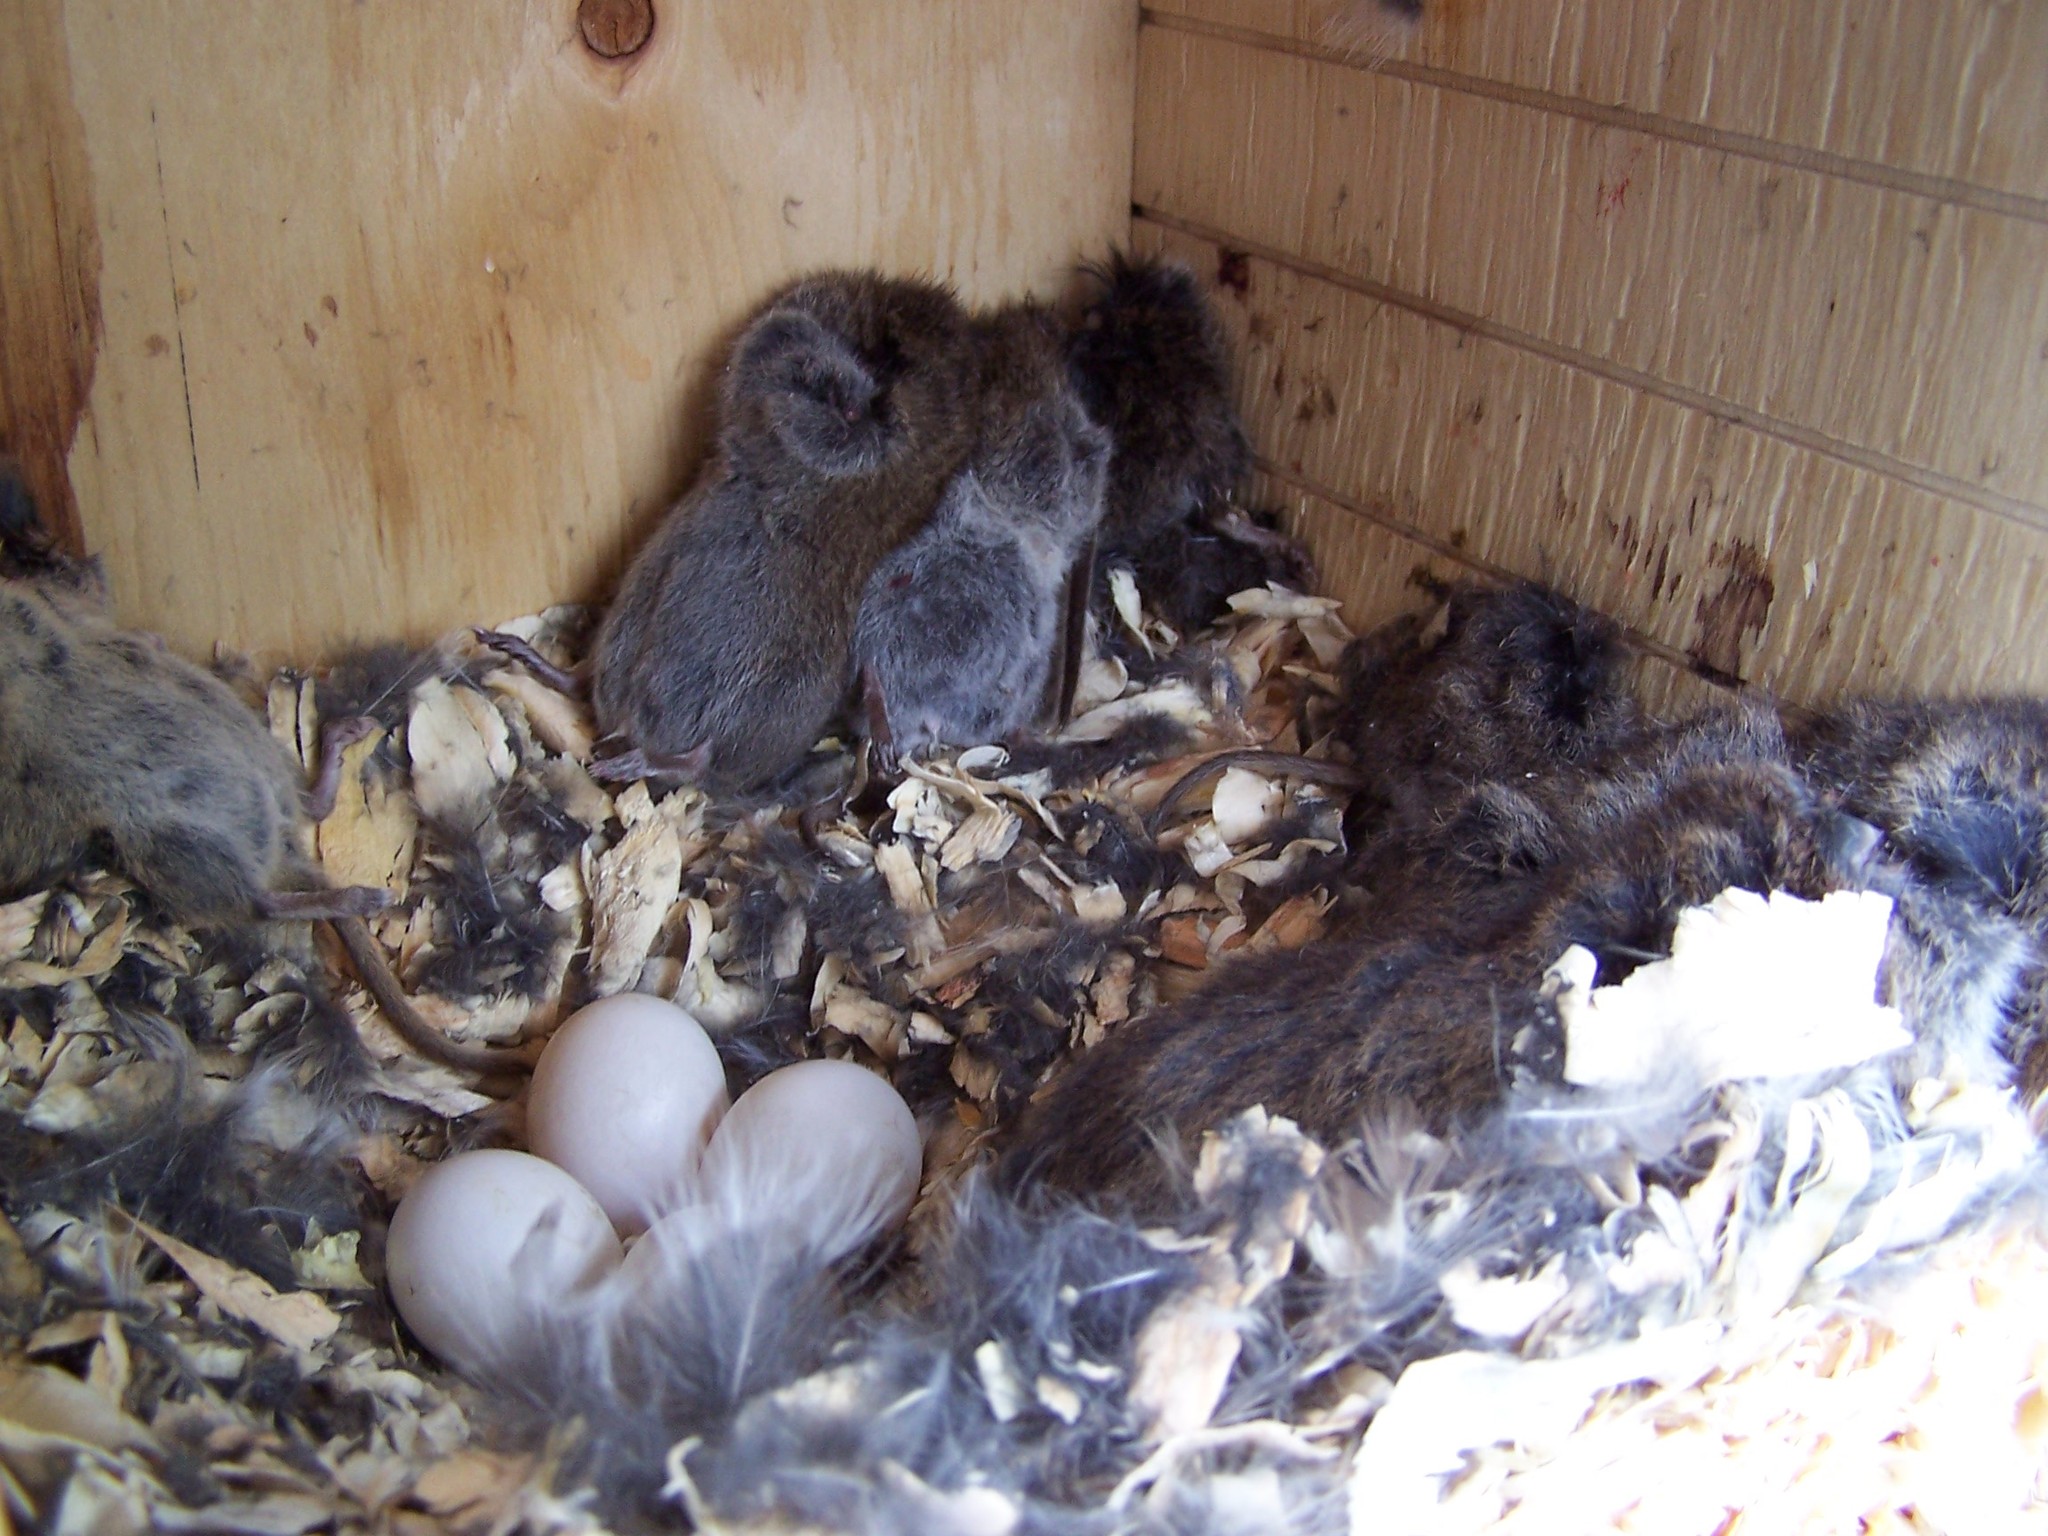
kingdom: Animalia
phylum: Chordata
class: Mammalia
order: Rodentia
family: Cricetidae
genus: Microtus
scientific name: Microtus pennsylvanicus
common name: Meadow vole
